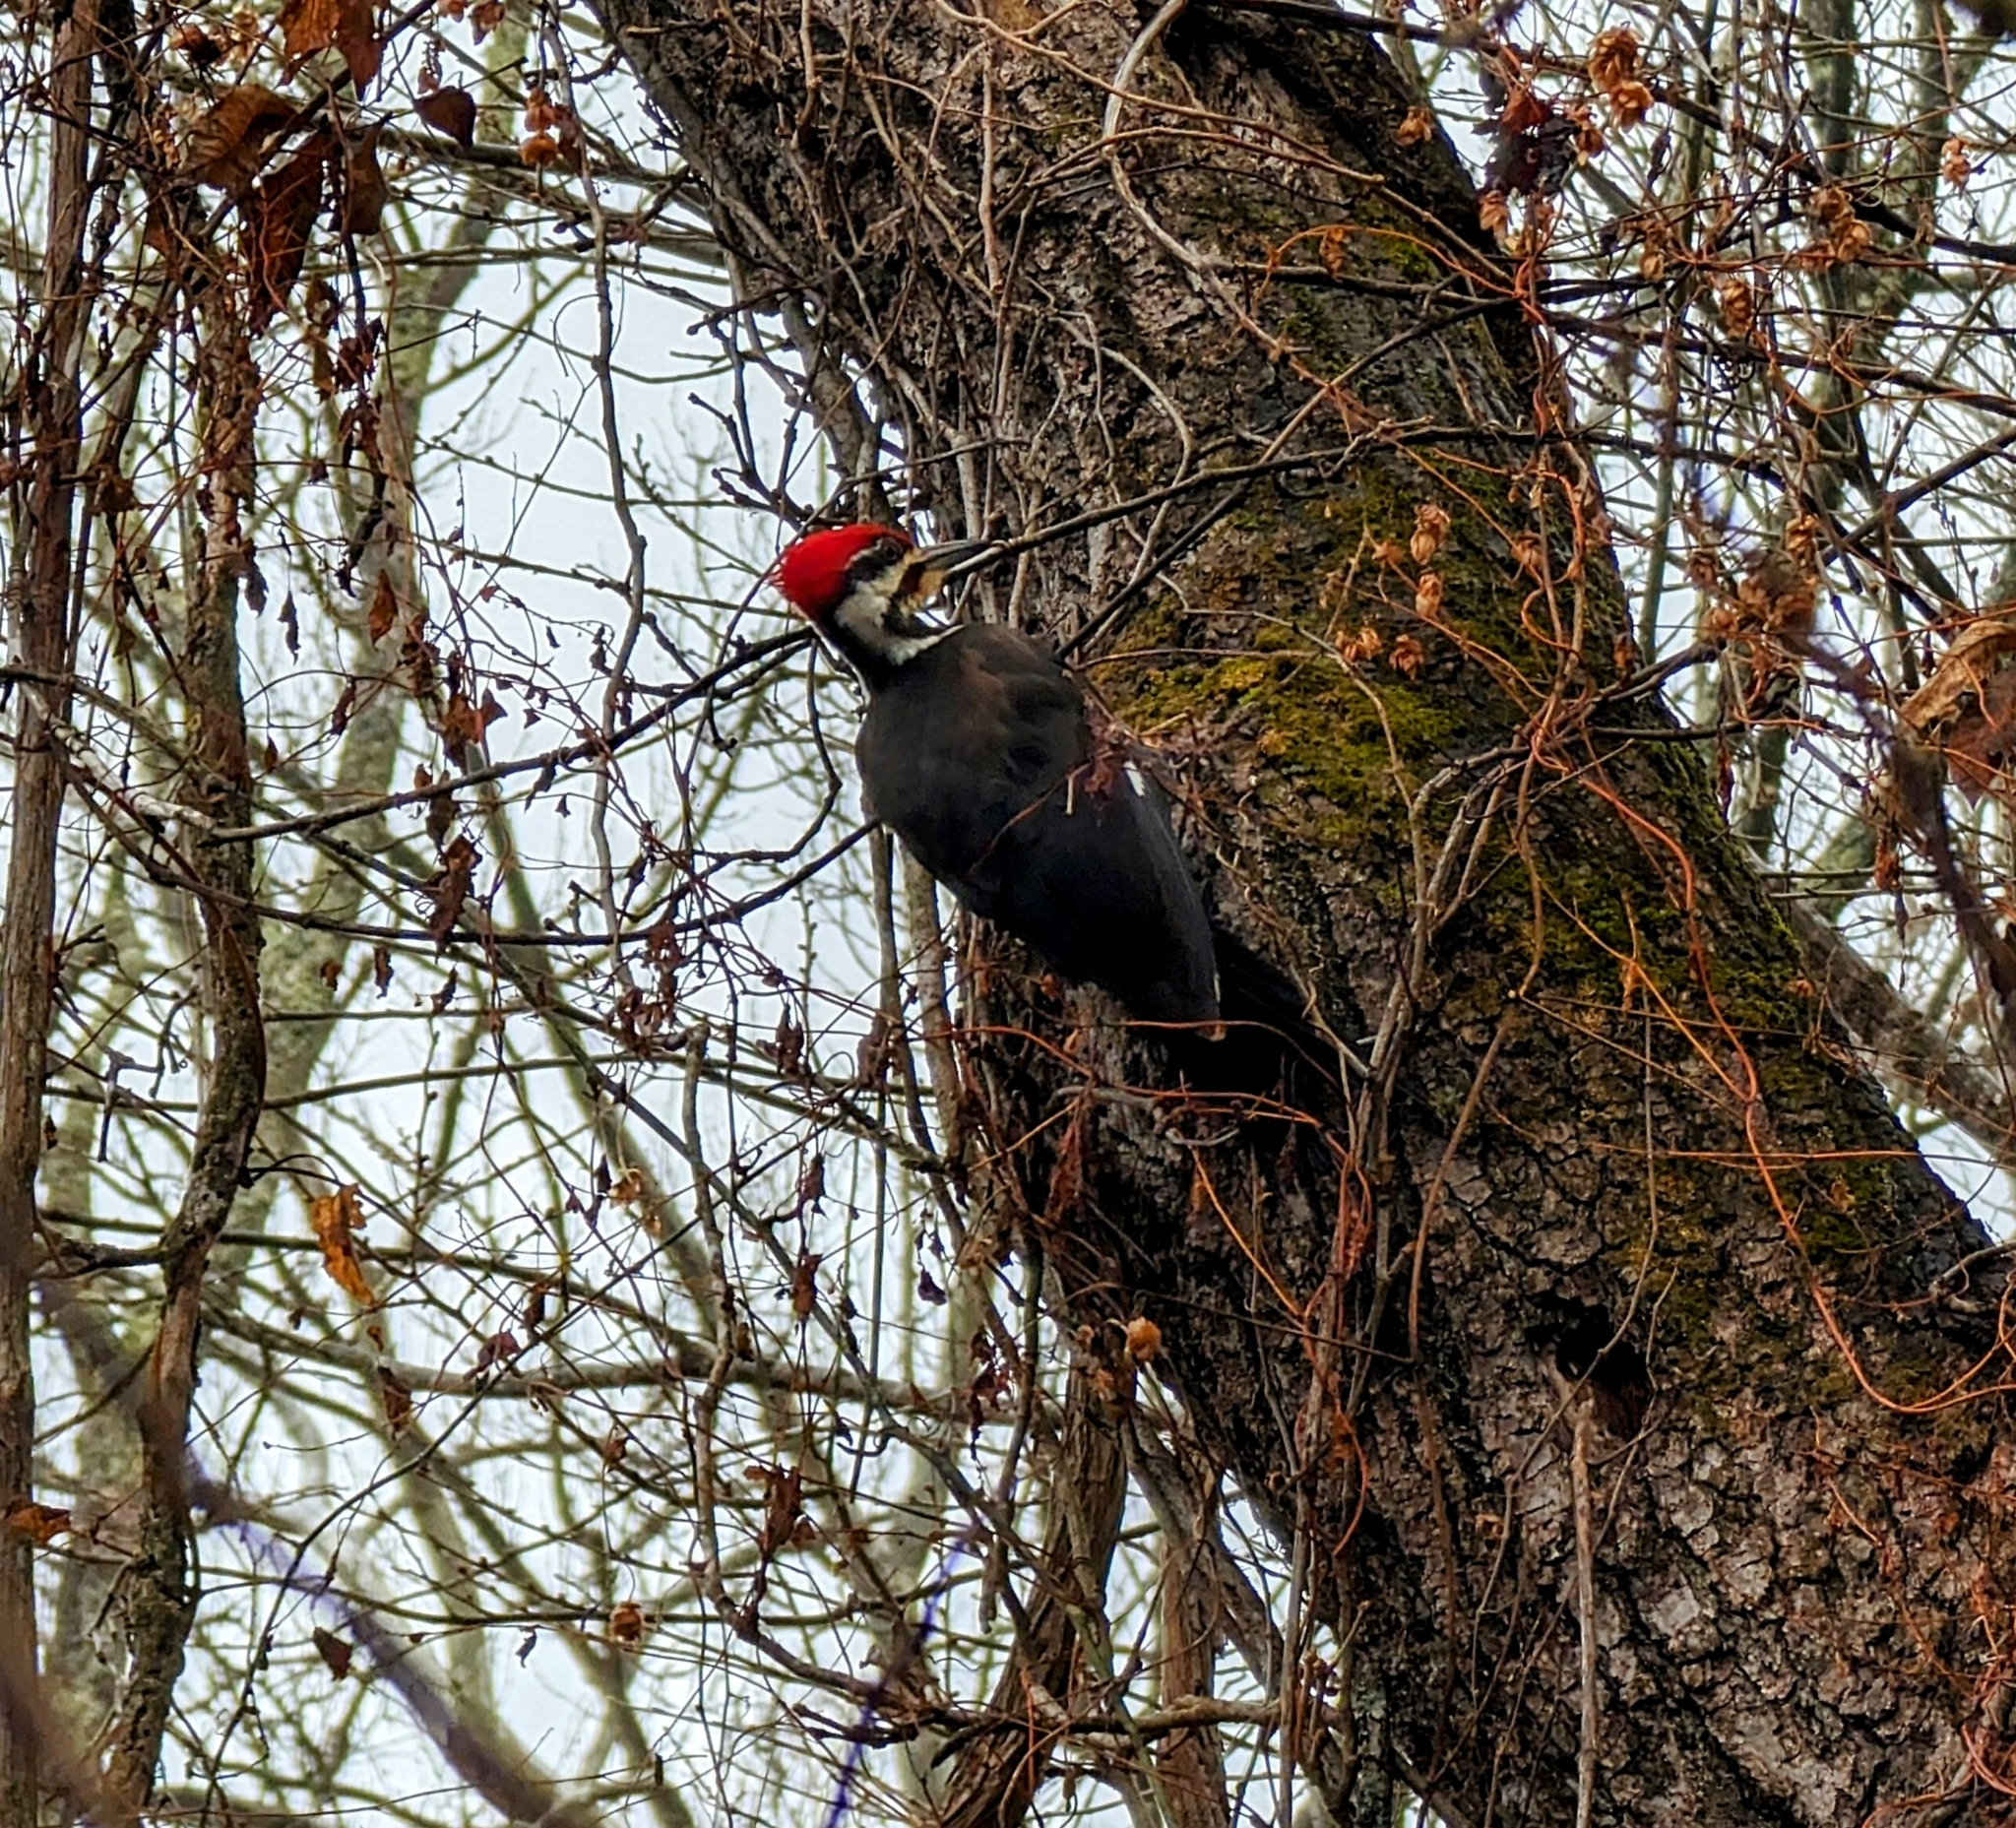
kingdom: Animalia
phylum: Chordata
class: Aves
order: Piciformes
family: Picidae
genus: Dryocopus
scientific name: Dryocopus pileatus
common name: Pileated woodpecker
